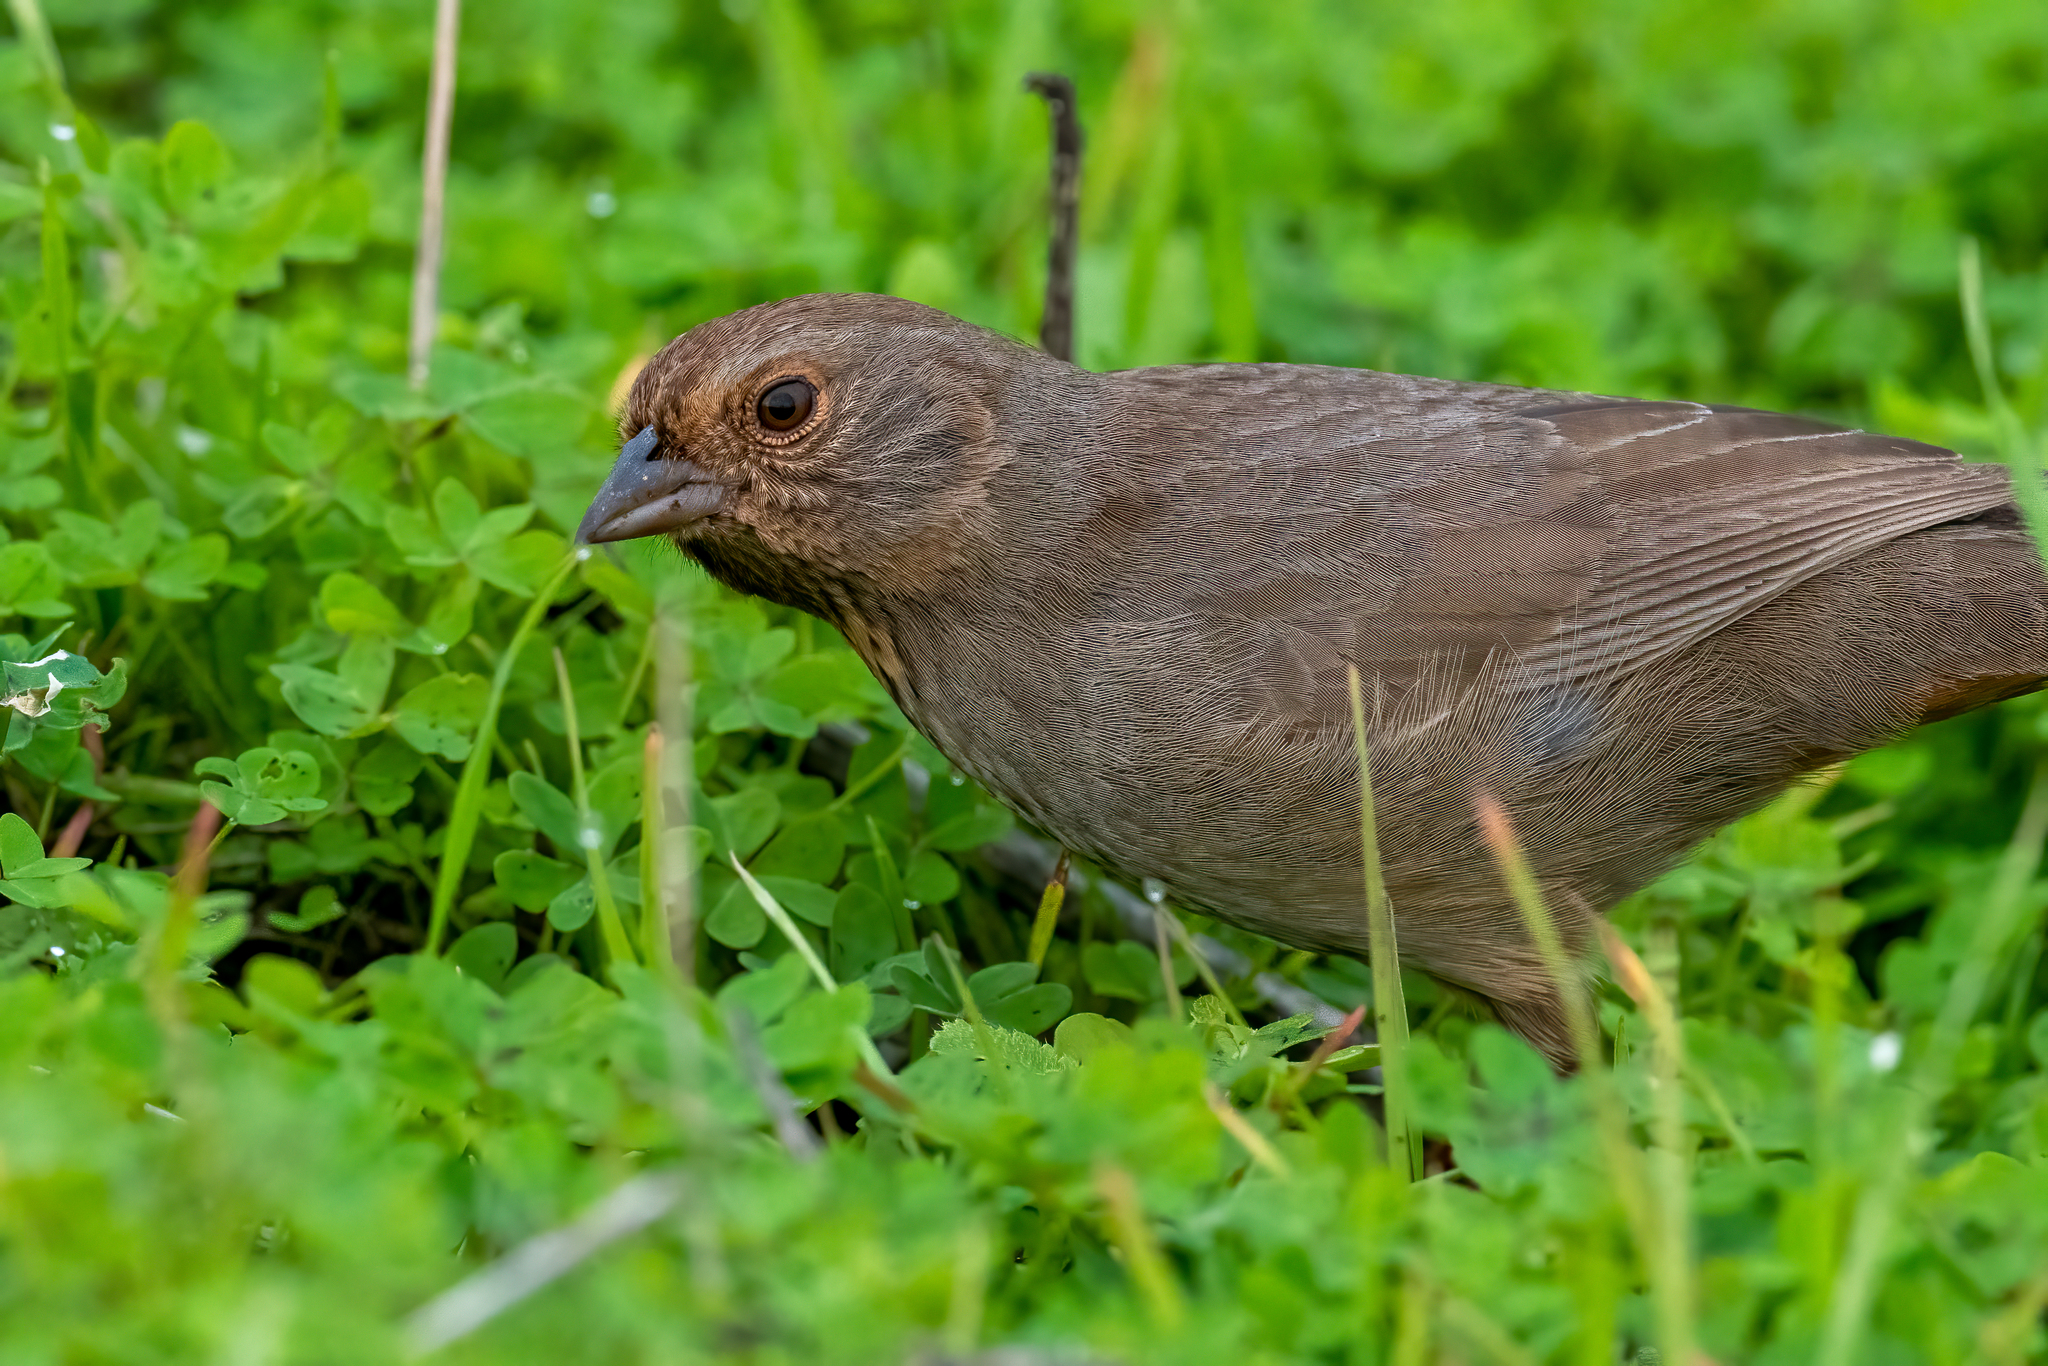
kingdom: Animalia
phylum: Chordata
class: Aves
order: Passeriformes
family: Passerellidae
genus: Melozone
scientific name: Melozone crissalis
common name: California towhee
